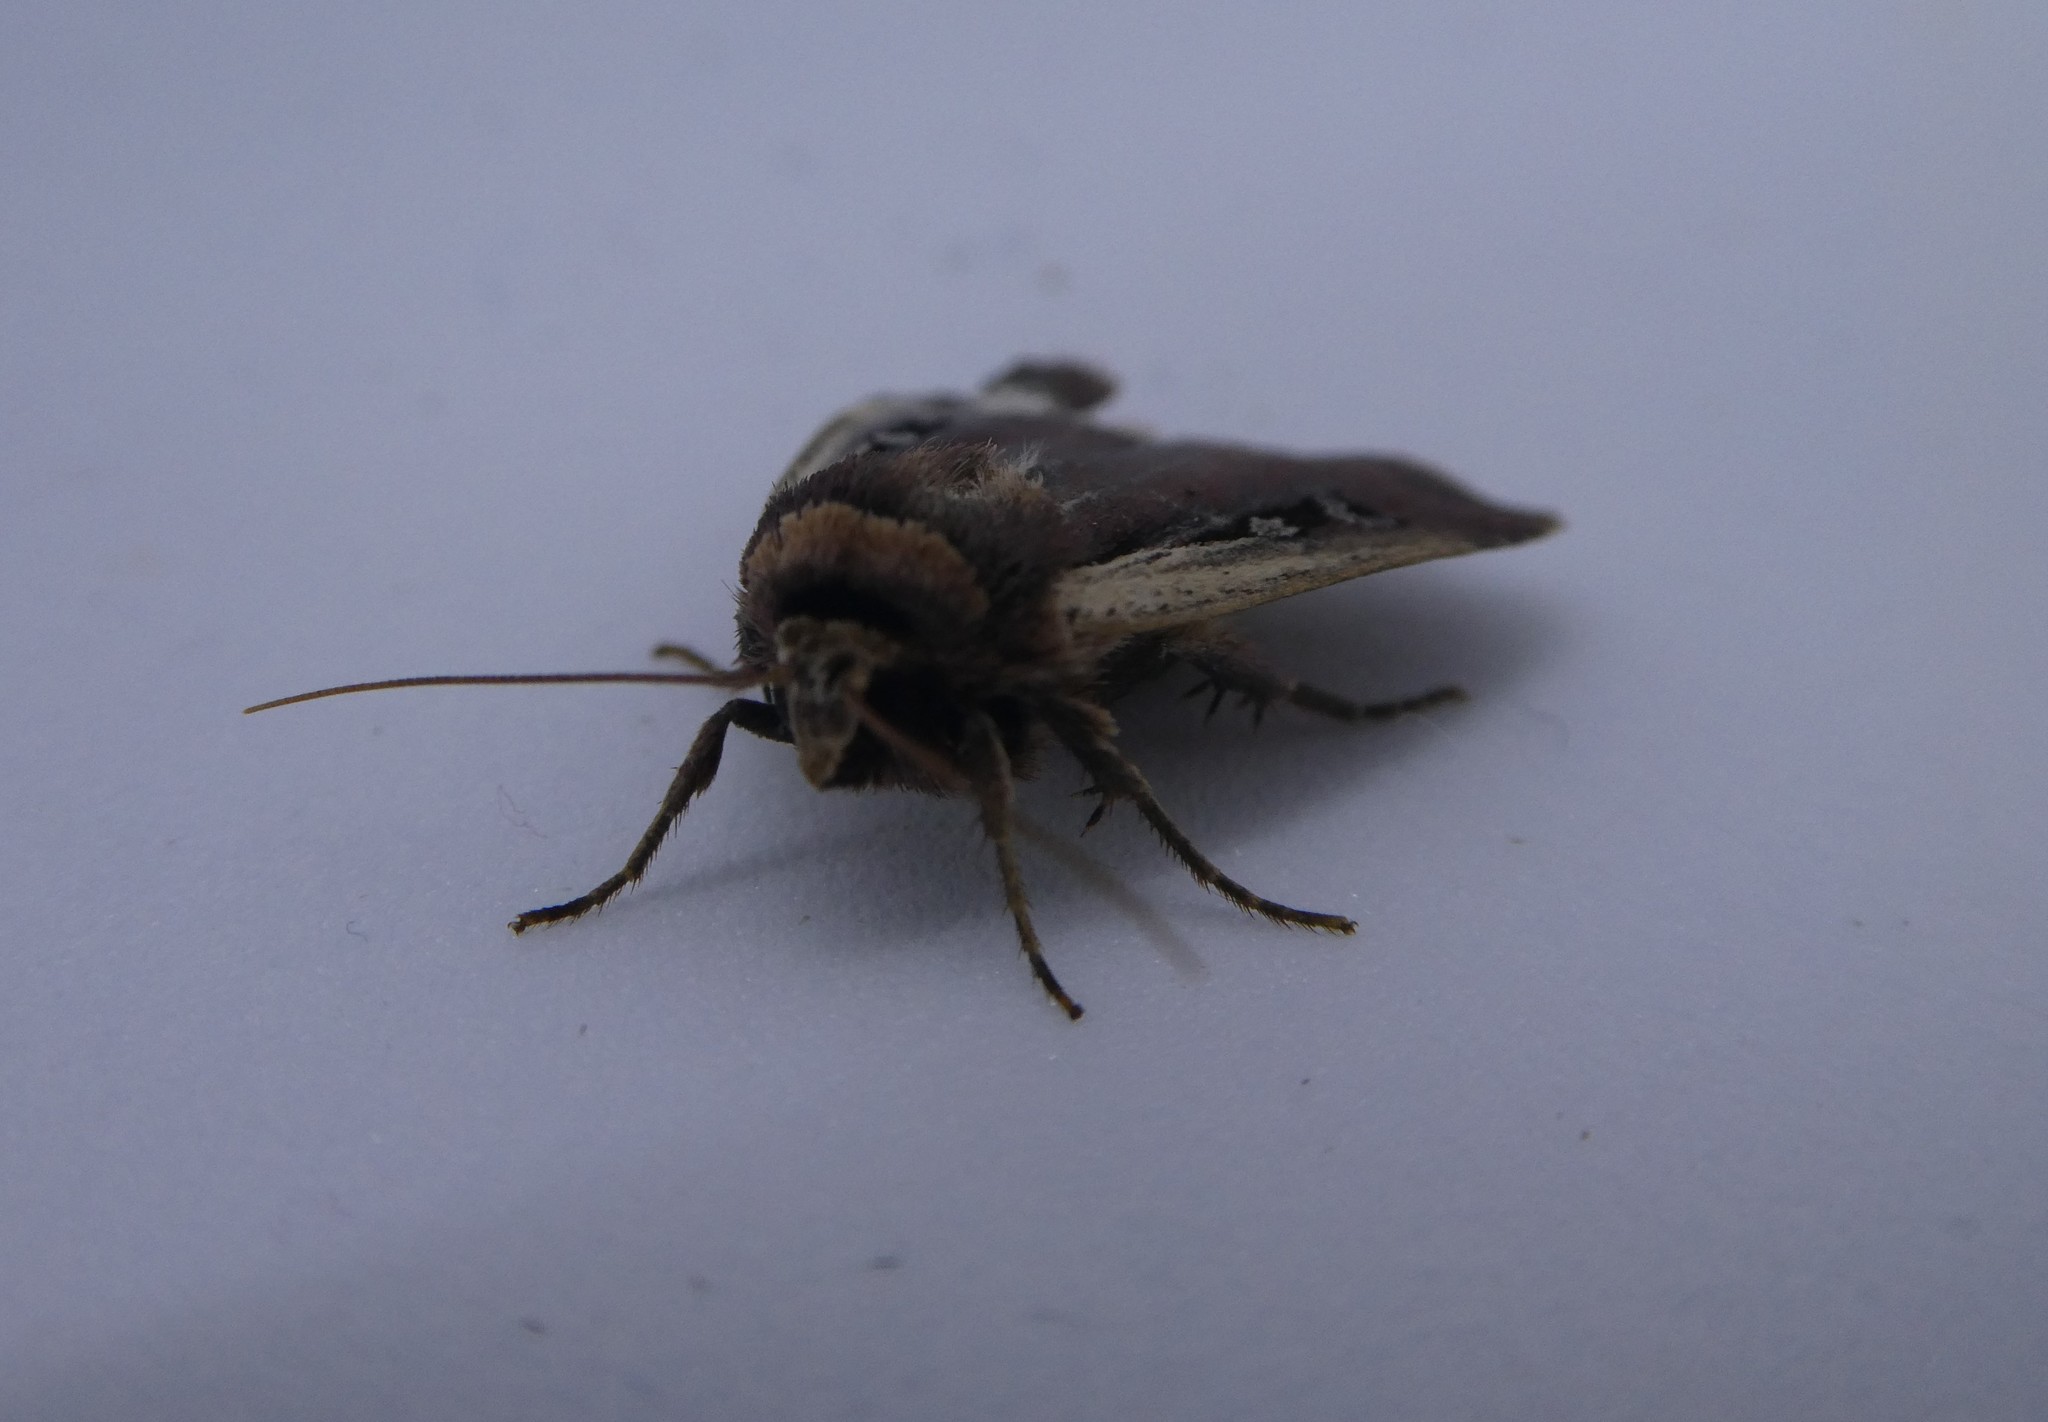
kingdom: Animalia
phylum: Arthropoda
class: Insecta
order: Lepidoptera
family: Noctuidae
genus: Ochropleura
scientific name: Ochropleura implecta
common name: Flame-shouldered dart
